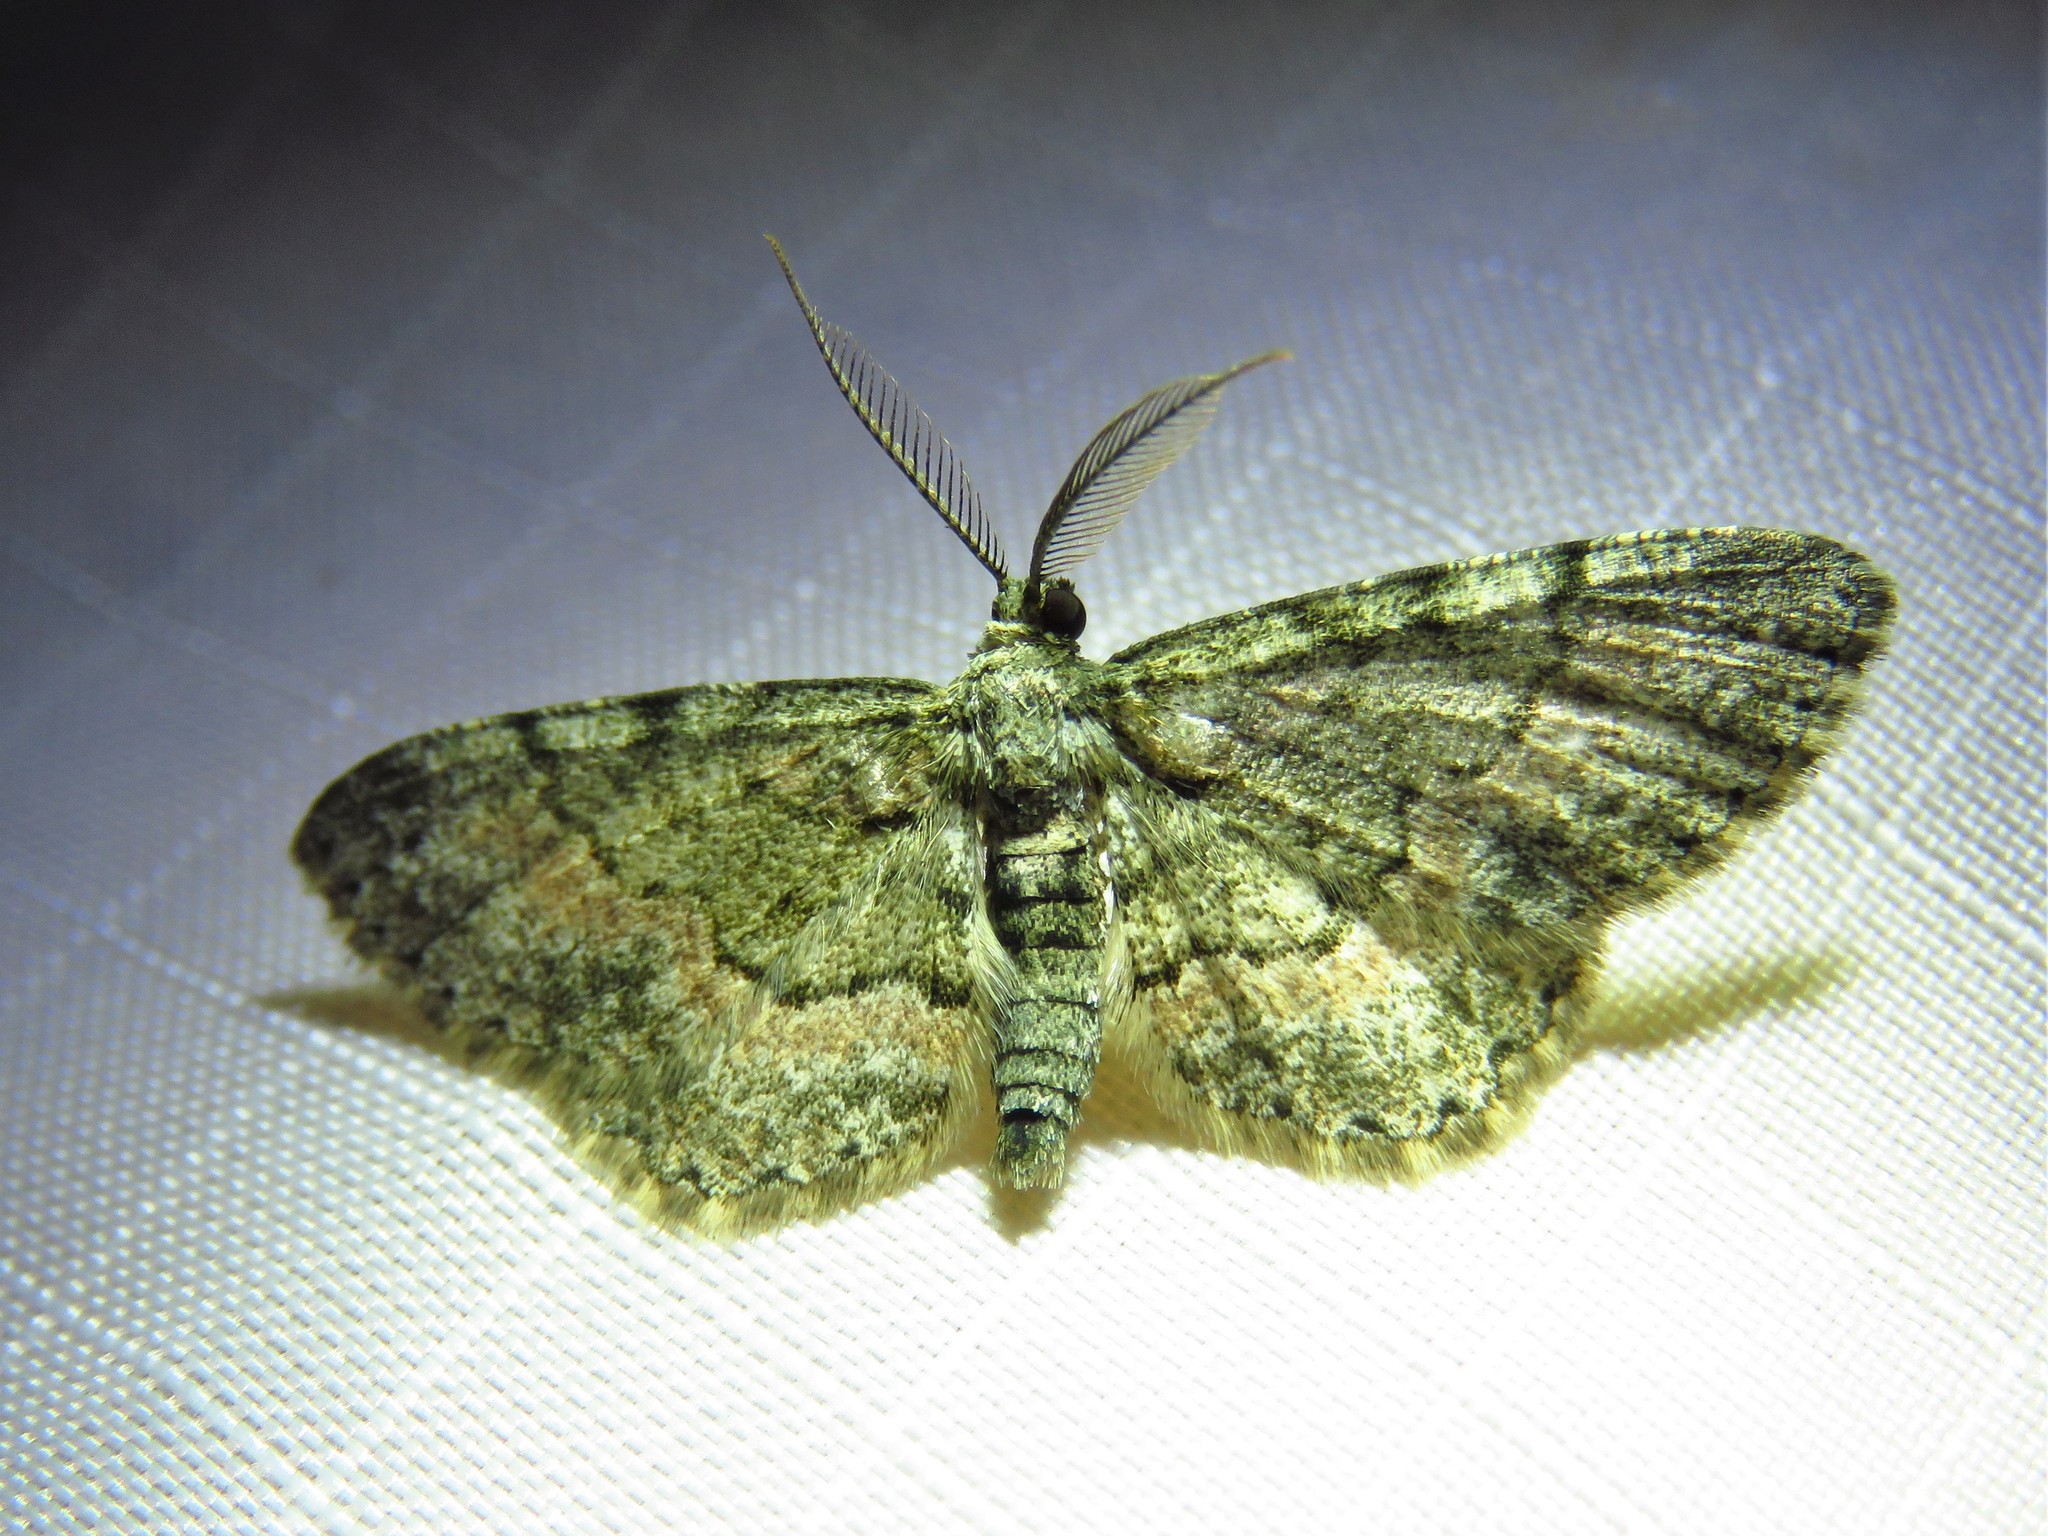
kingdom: Animalia
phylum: Arthropoda
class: Insecta
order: Lepidoptera
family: Geometridae
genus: Glenoides
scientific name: Glenoides texanaria
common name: Texas gray
